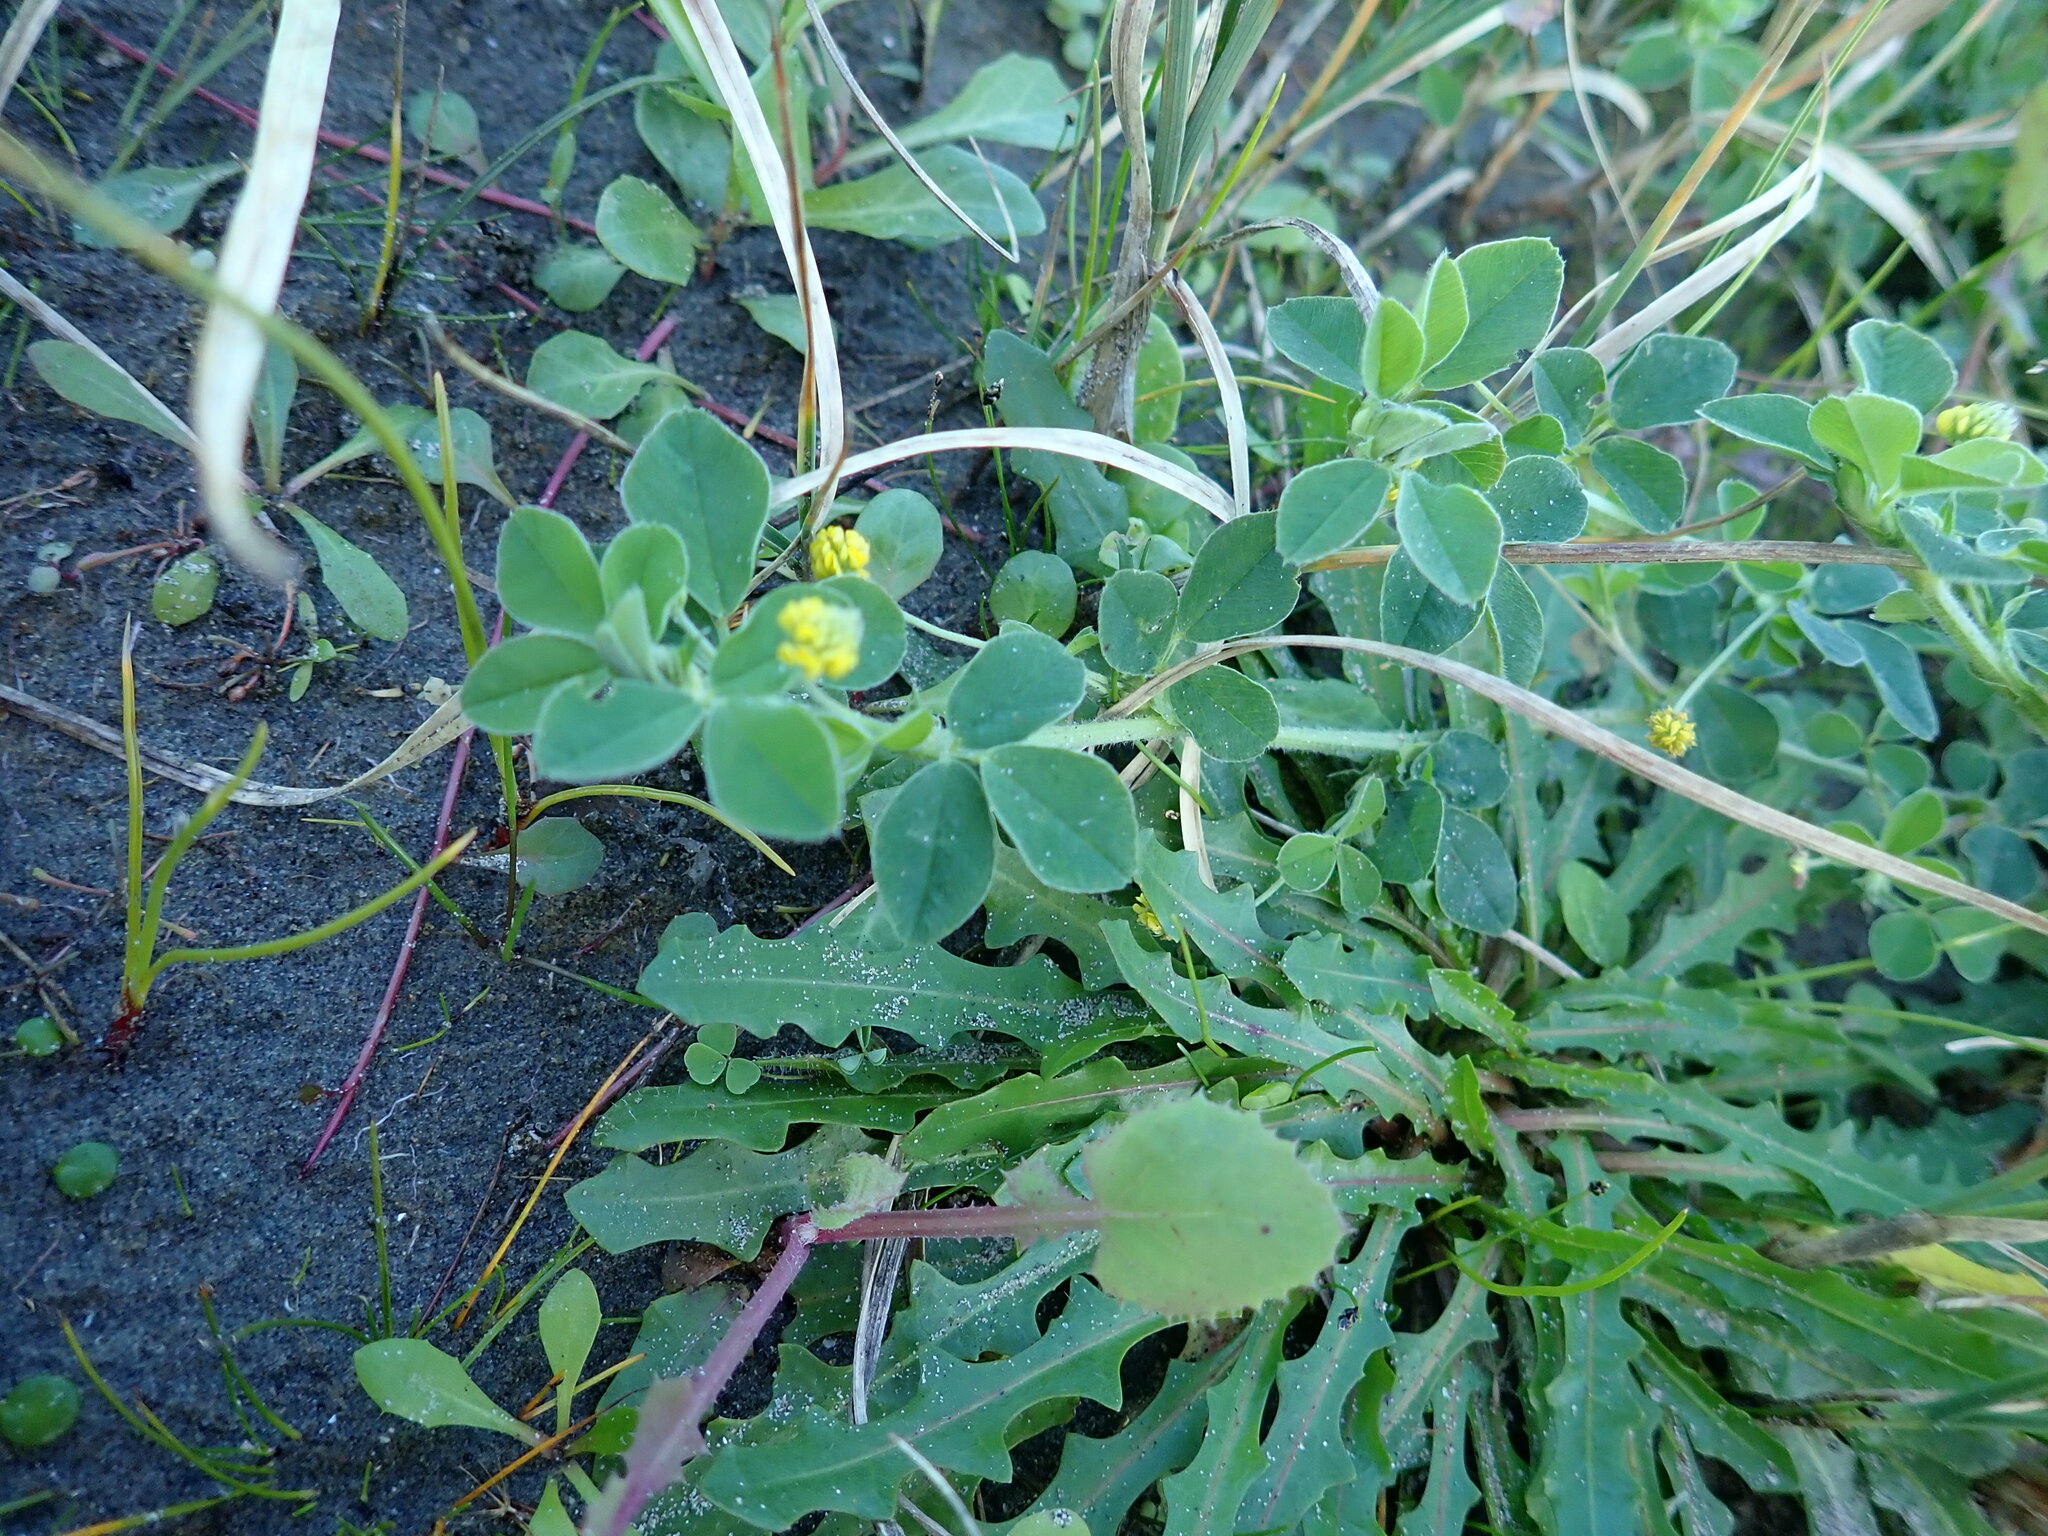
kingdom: Plantae
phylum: Tracheophyta
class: Magnoliopsida
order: Fabales
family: Fabaceae
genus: Medicago
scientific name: Medicago lupulina
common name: Black medick
